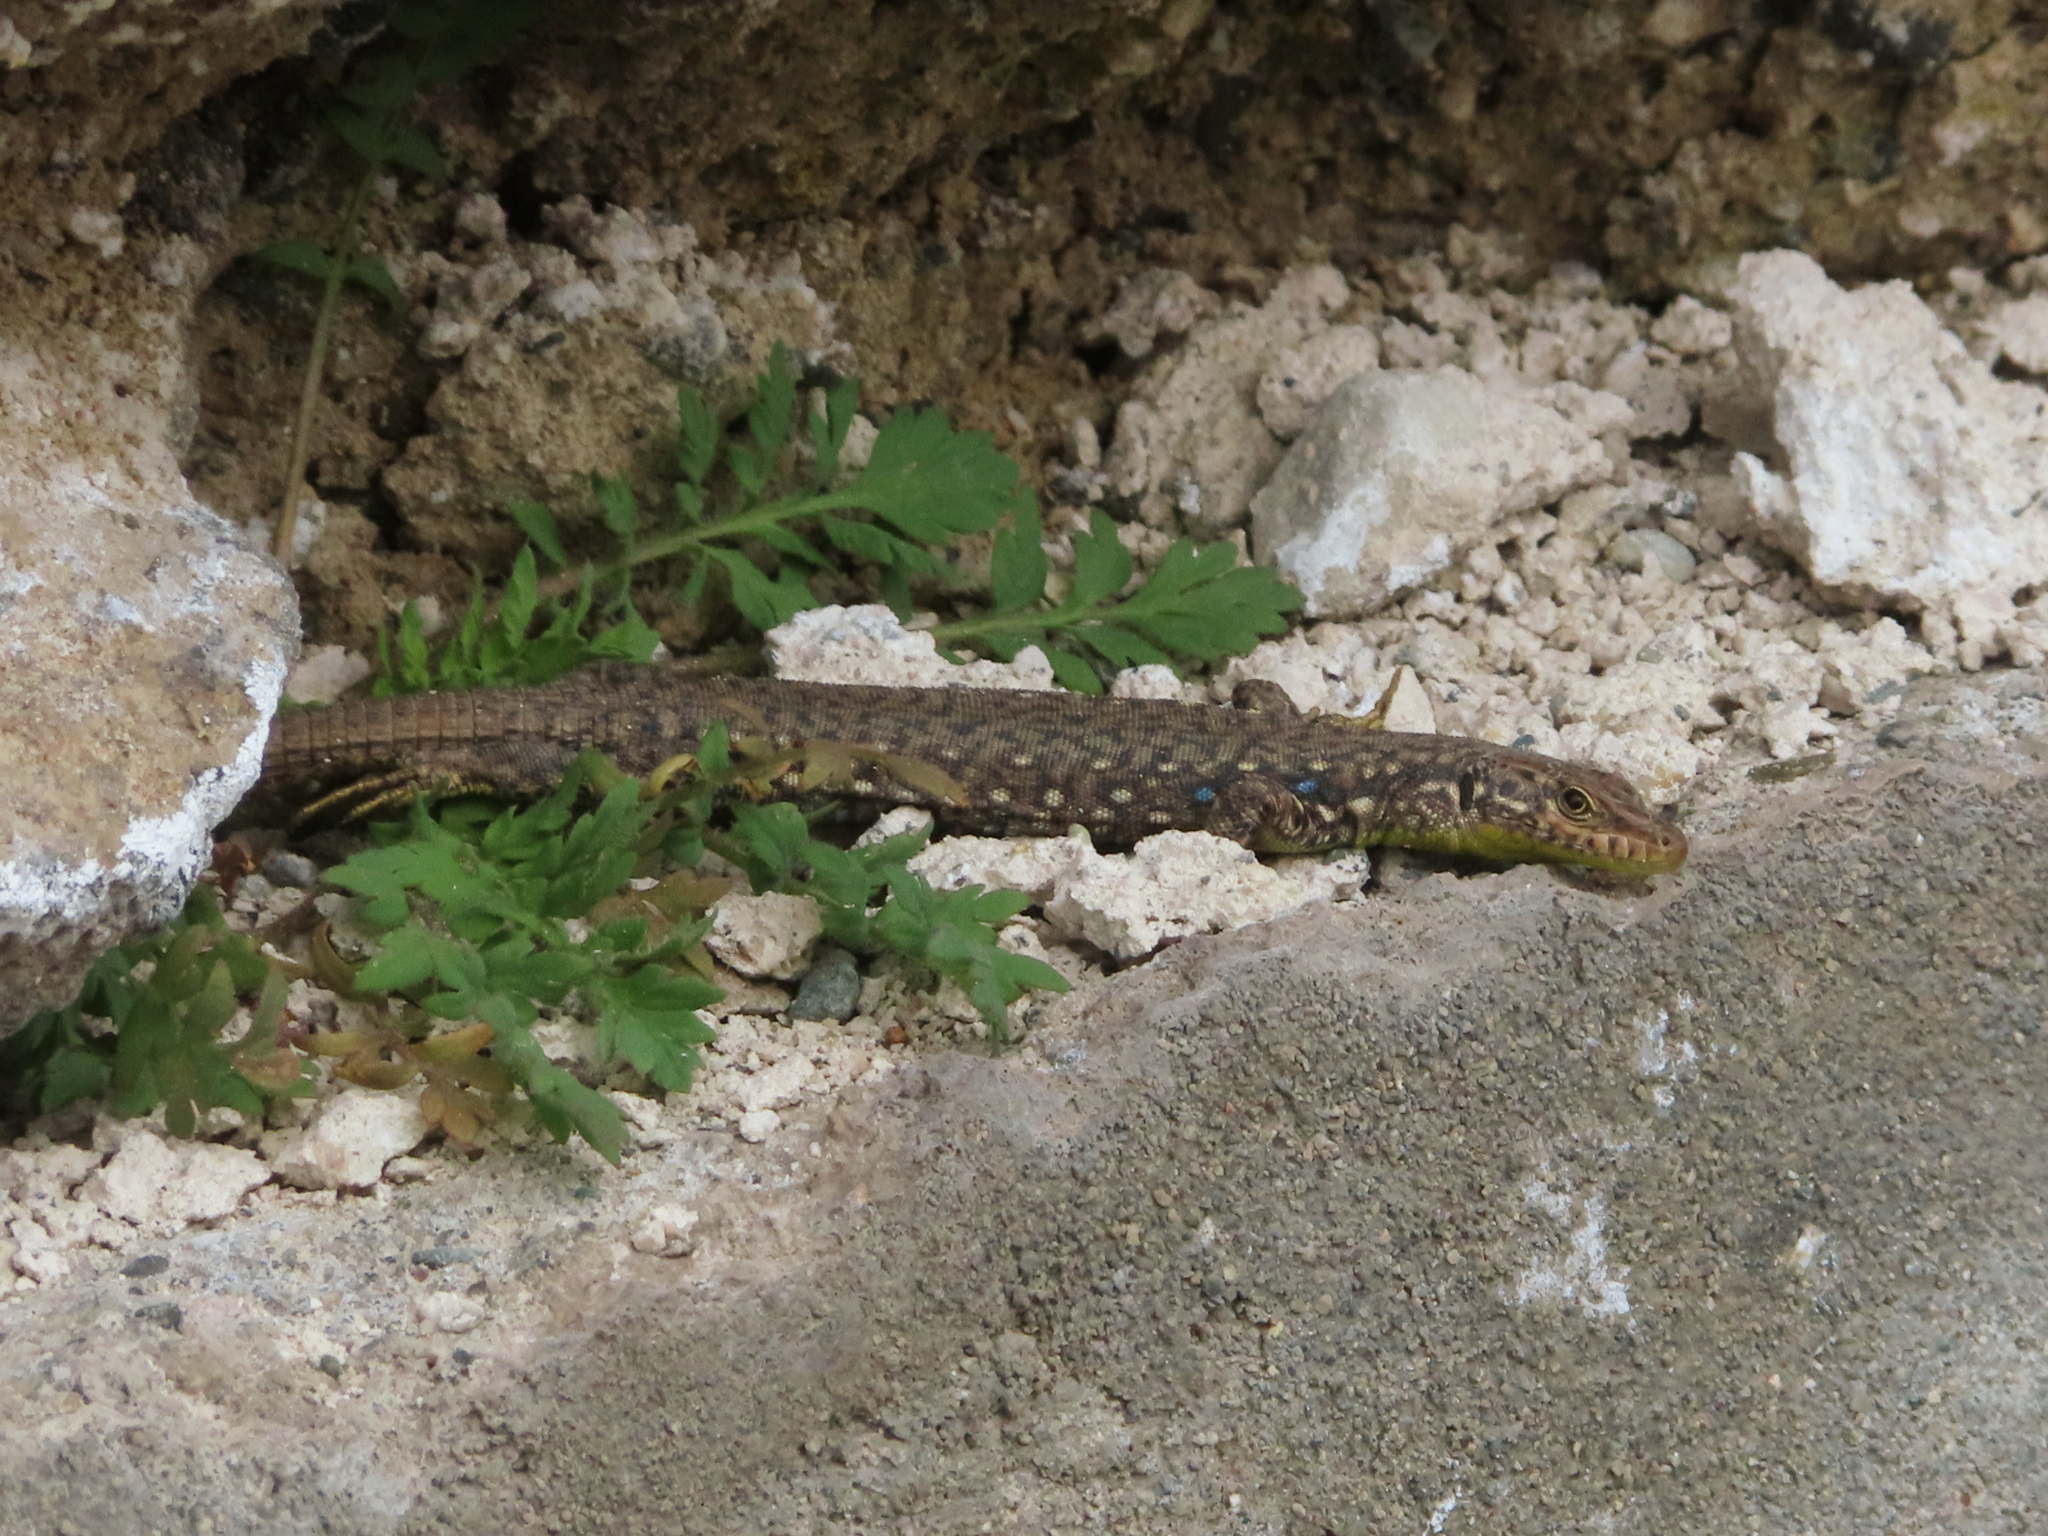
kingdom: Animalia
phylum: Chordata
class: Squamata
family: Lacertidae
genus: Darevskia
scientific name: Darevskia
